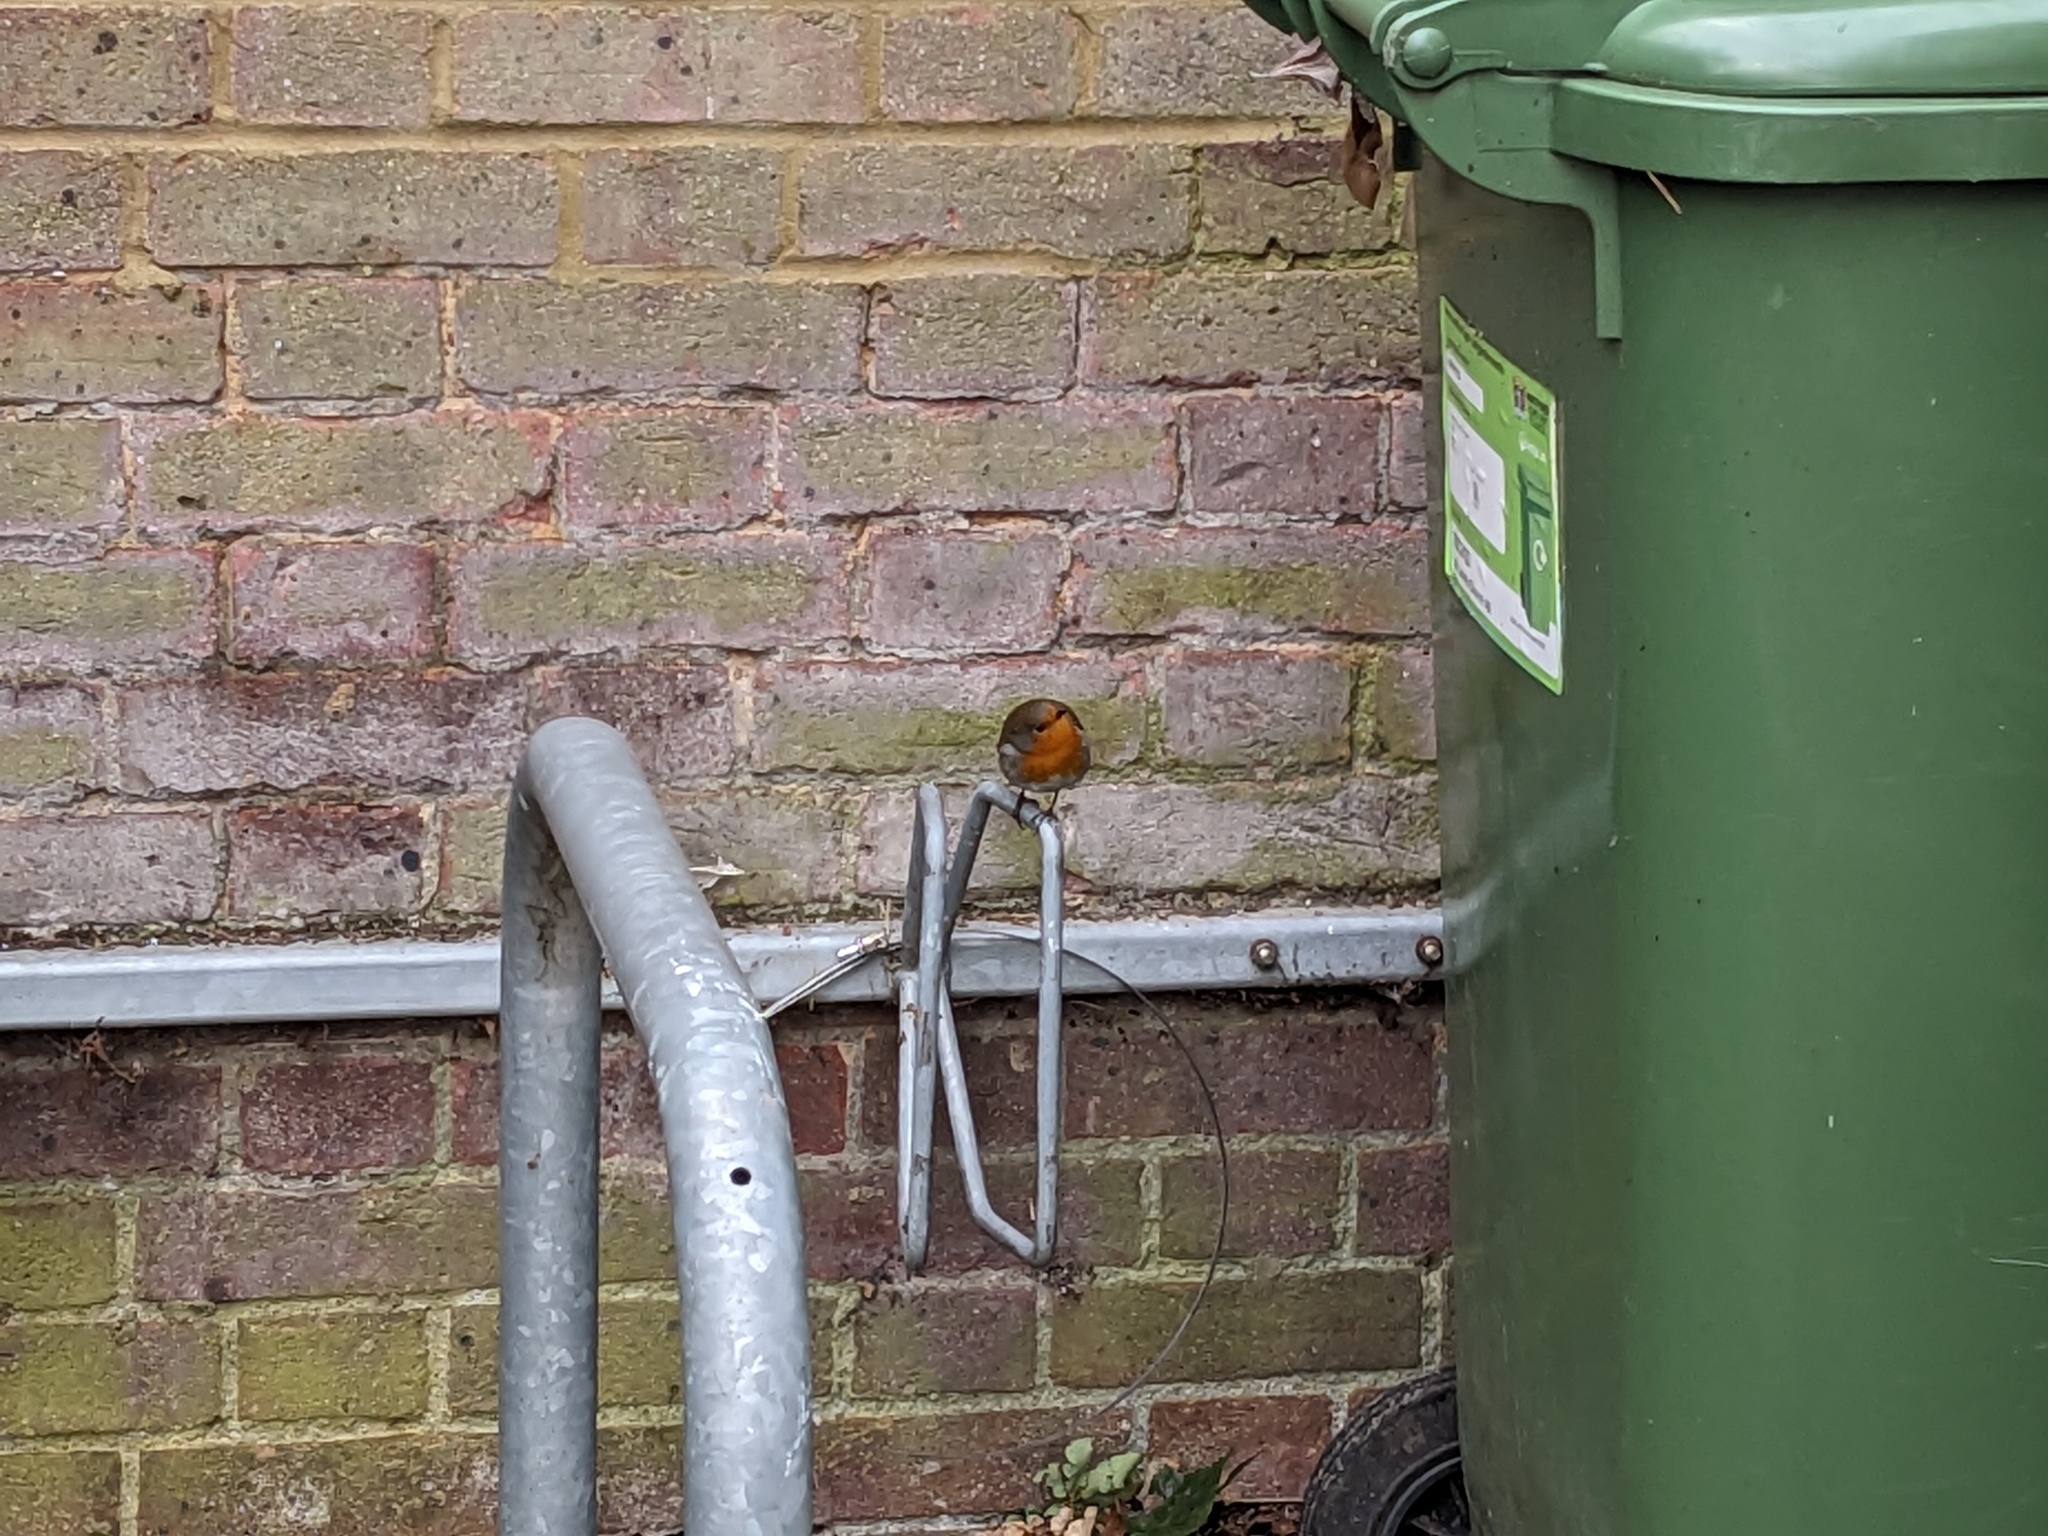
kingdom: Animalia
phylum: Chordata
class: Aves
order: Passeriformes
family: Muscicapidae
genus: Erithacus
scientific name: Erithacus rubecula
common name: European robin
